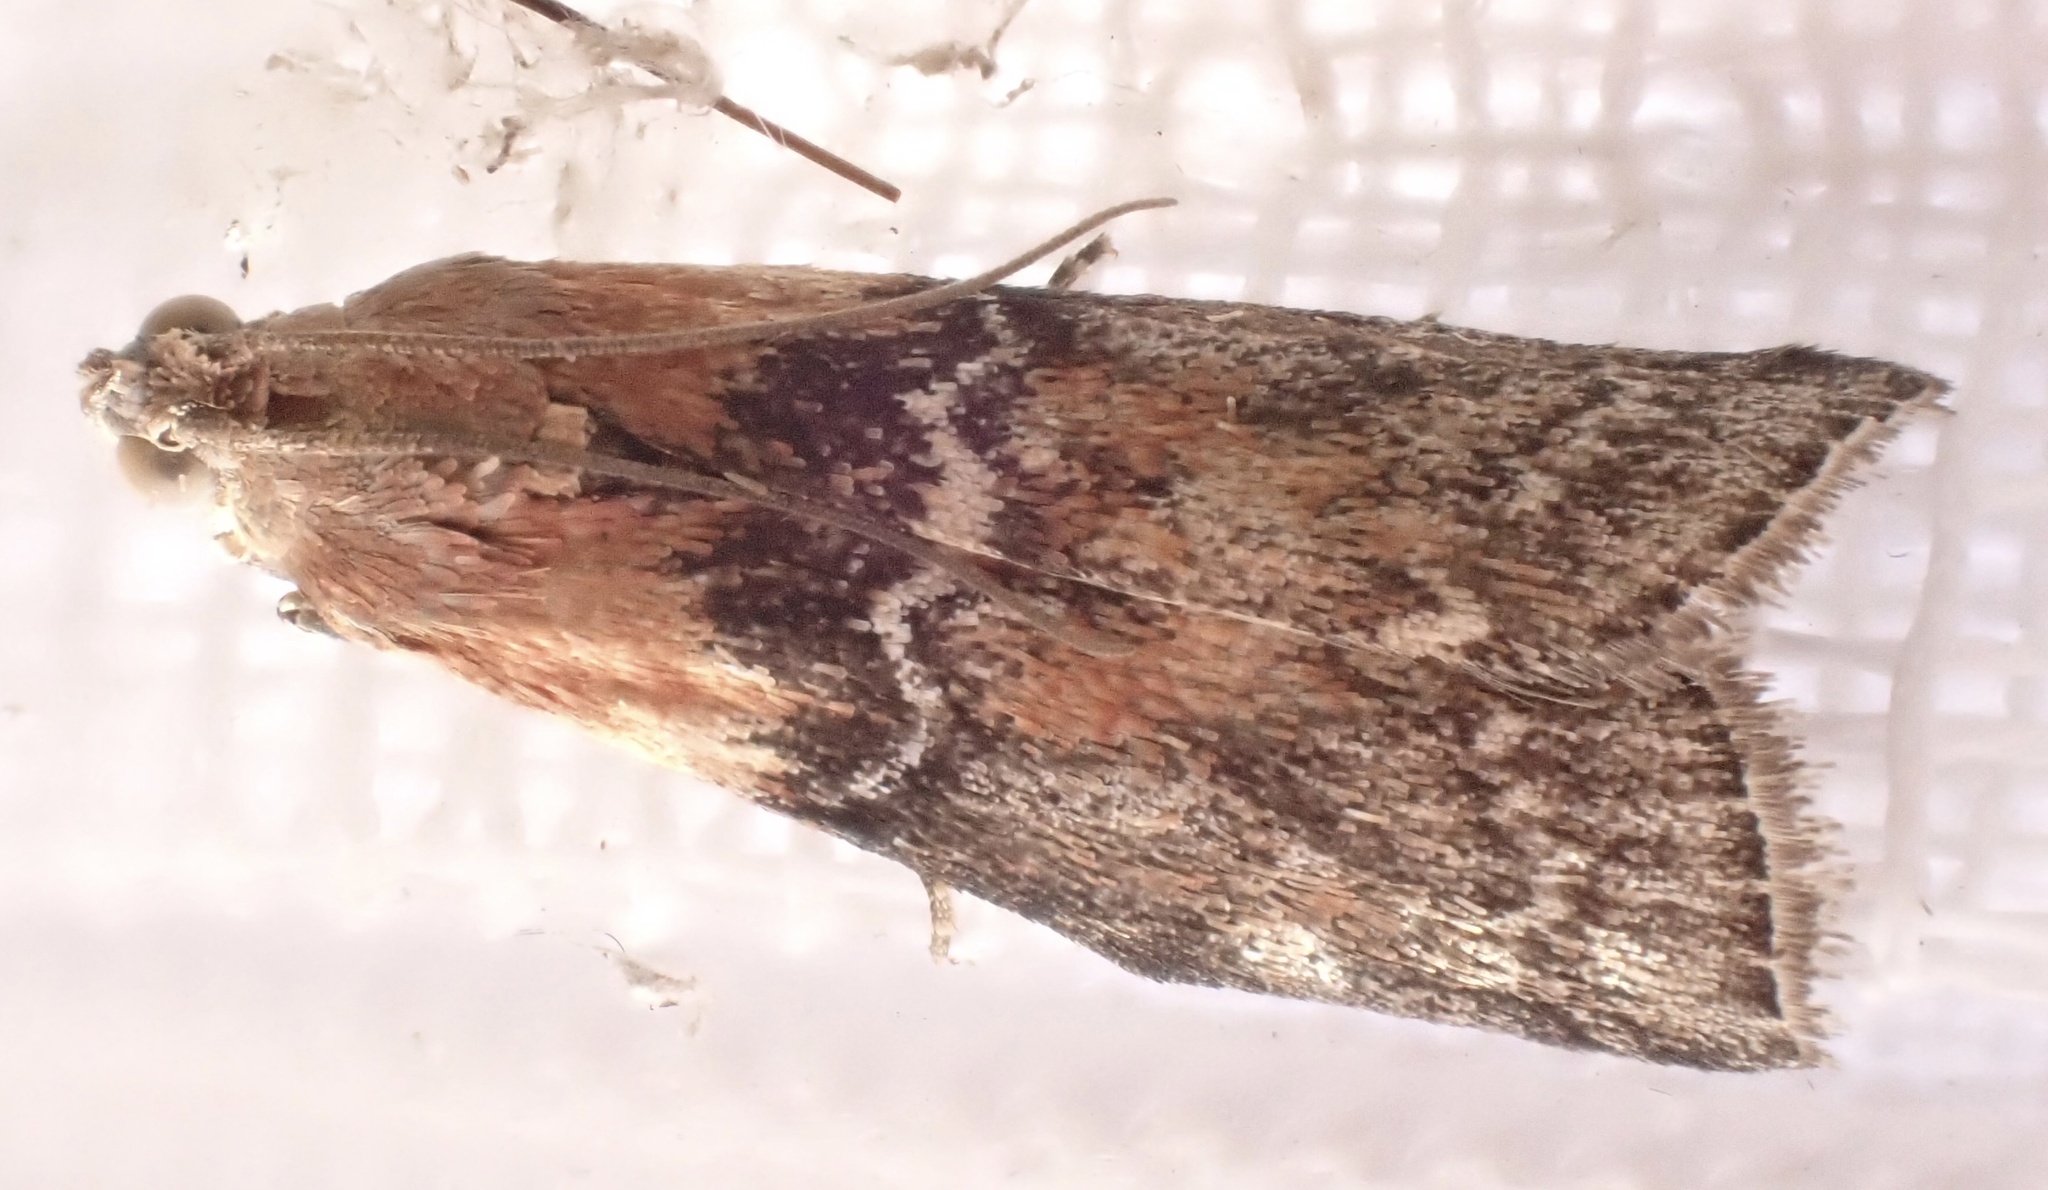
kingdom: Animalia
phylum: Arthropoda
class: Insecta
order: Lepidoptera
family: Pyralidae
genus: Sciota
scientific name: Sciota adelphella
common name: Willow knot-horn
